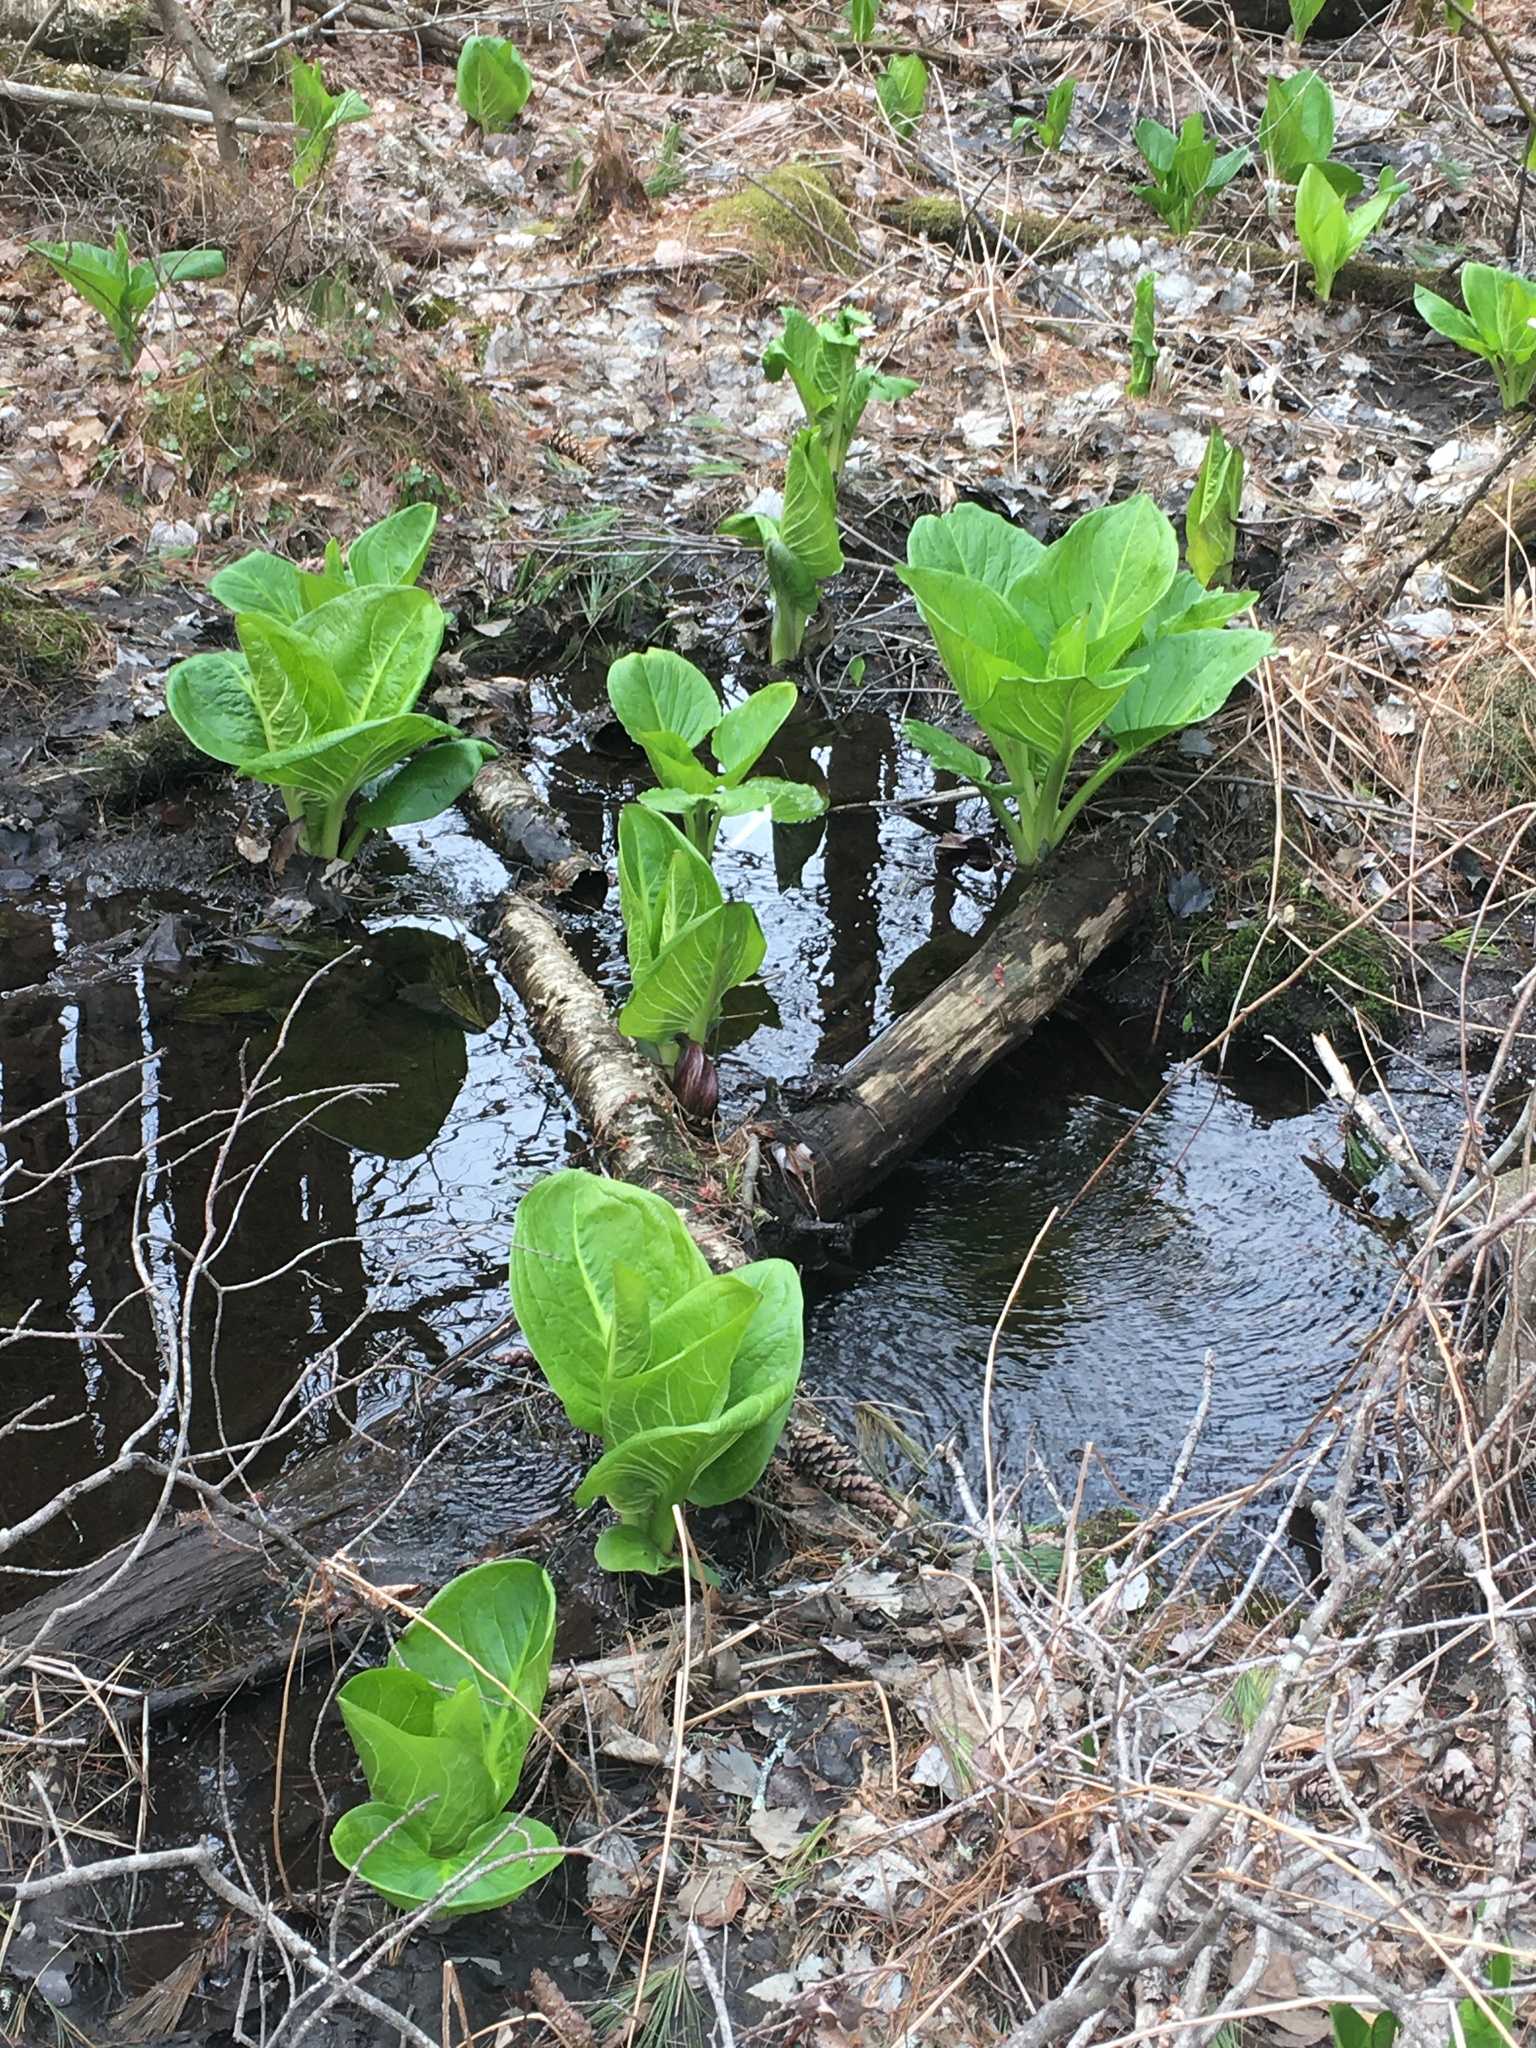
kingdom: Plantae
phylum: Tracheophyta
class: Liliopsida
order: Alismatales
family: Araceae
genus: Symplocarpus
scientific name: Symplocarpus foetidus
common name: Eastern skunk cabbage
